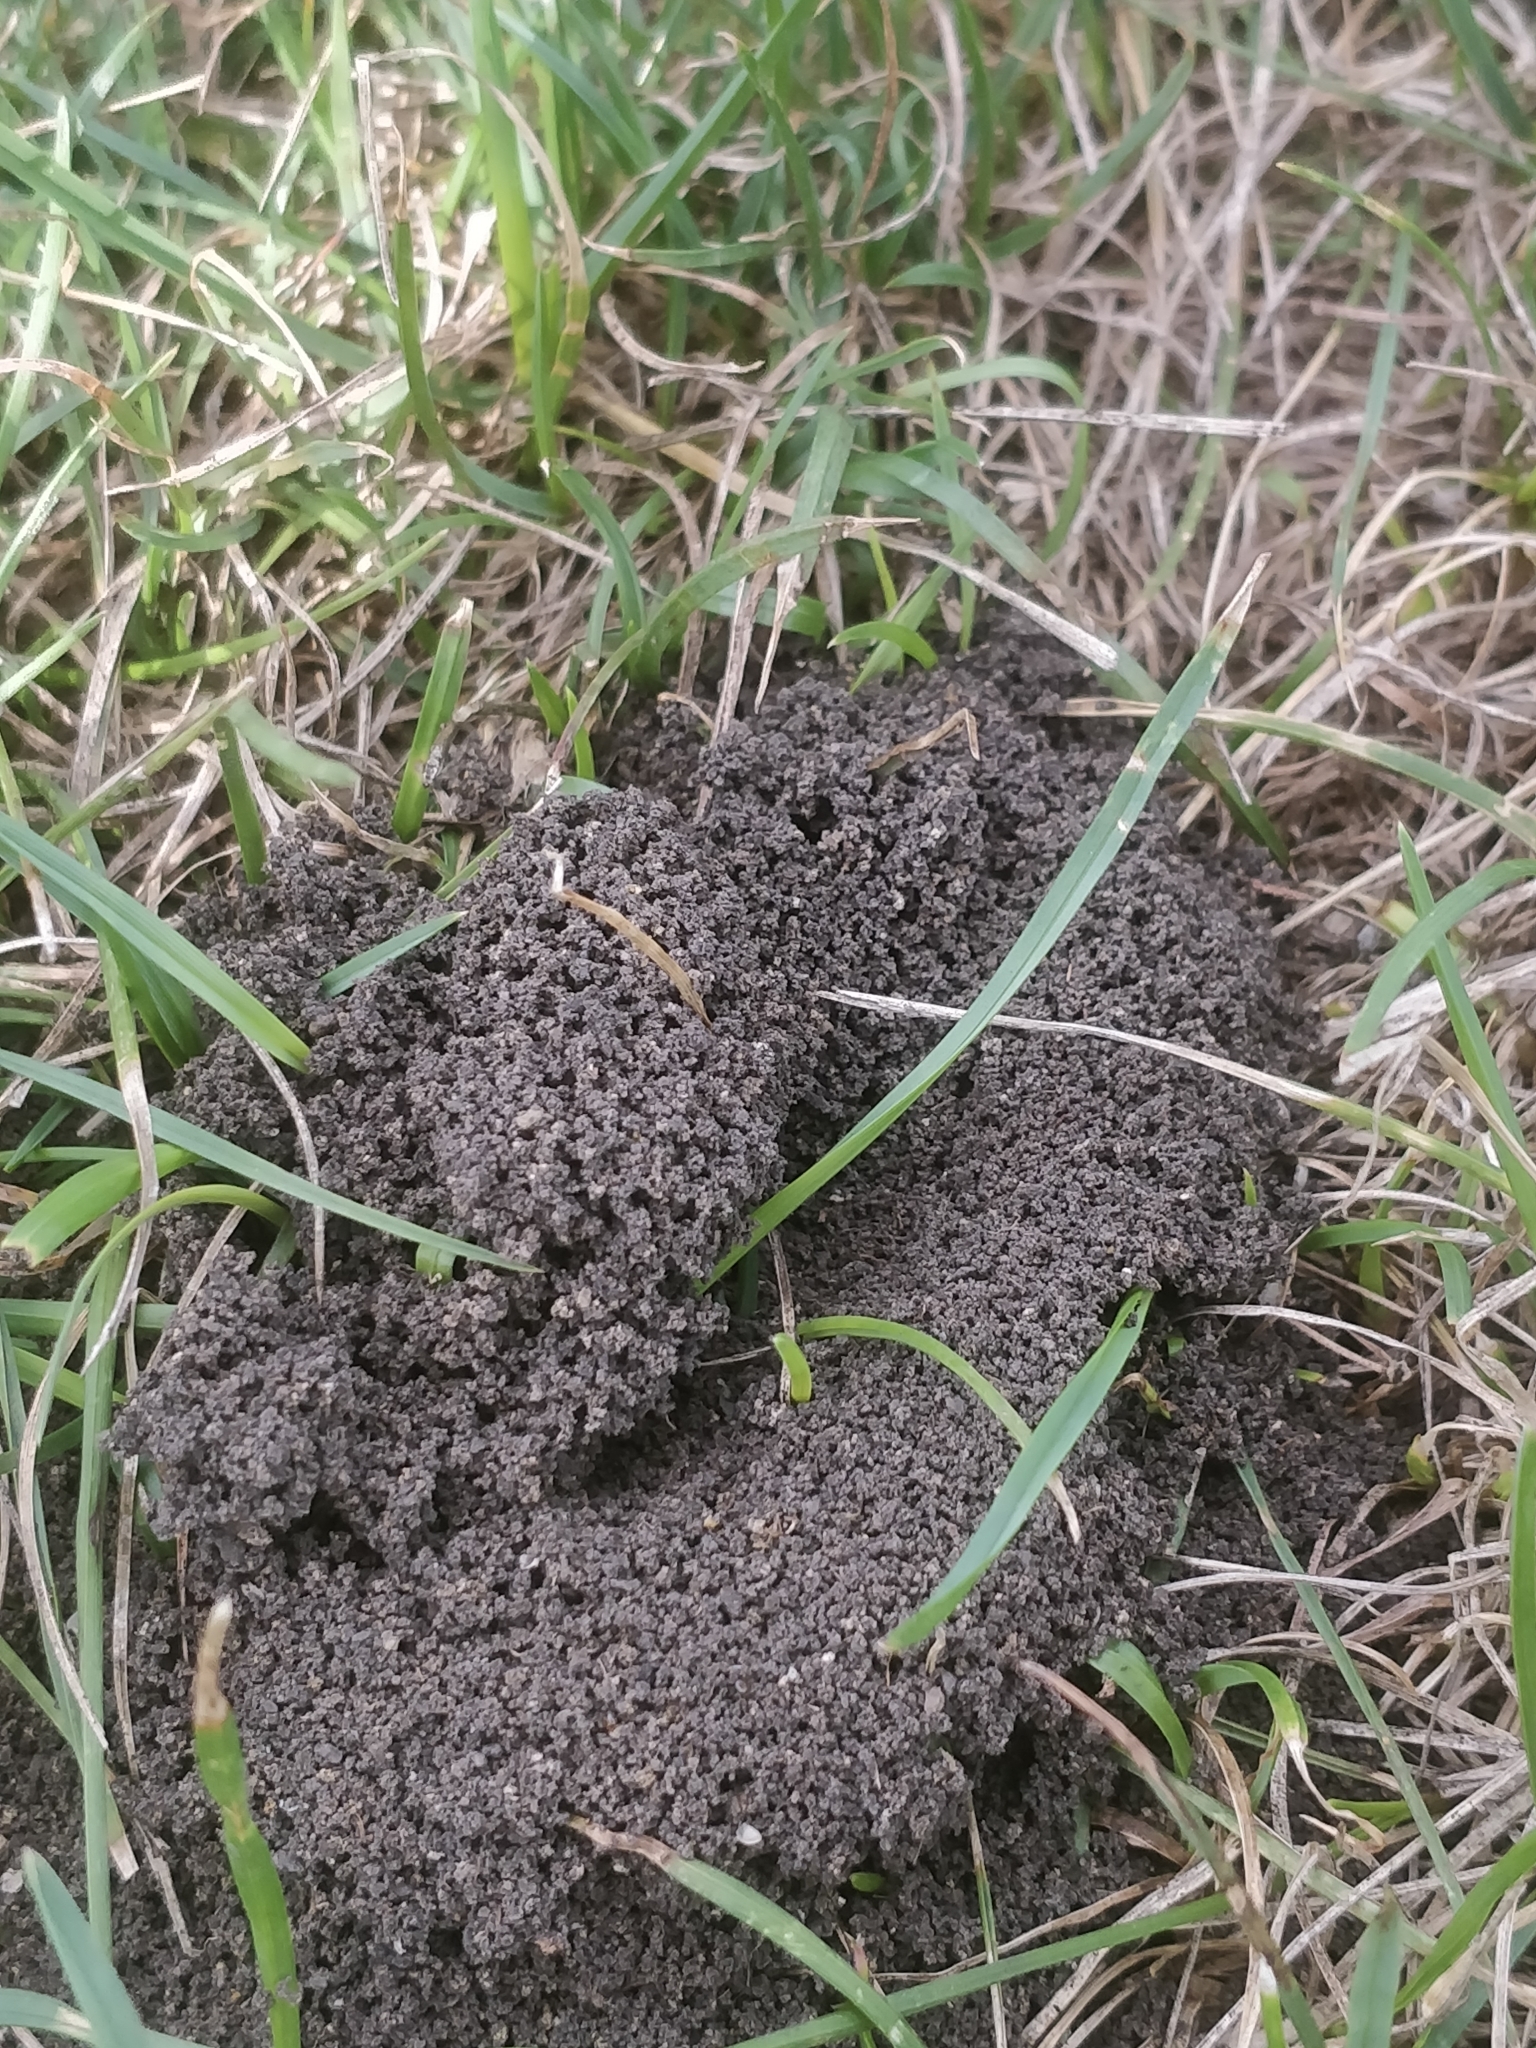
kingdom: Animalia
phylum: Arthropoda
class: Insecta
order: Hymenoptera
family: Formicidae
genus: Lasius
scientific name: Lasius neoniger
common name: Turfgrass ant
